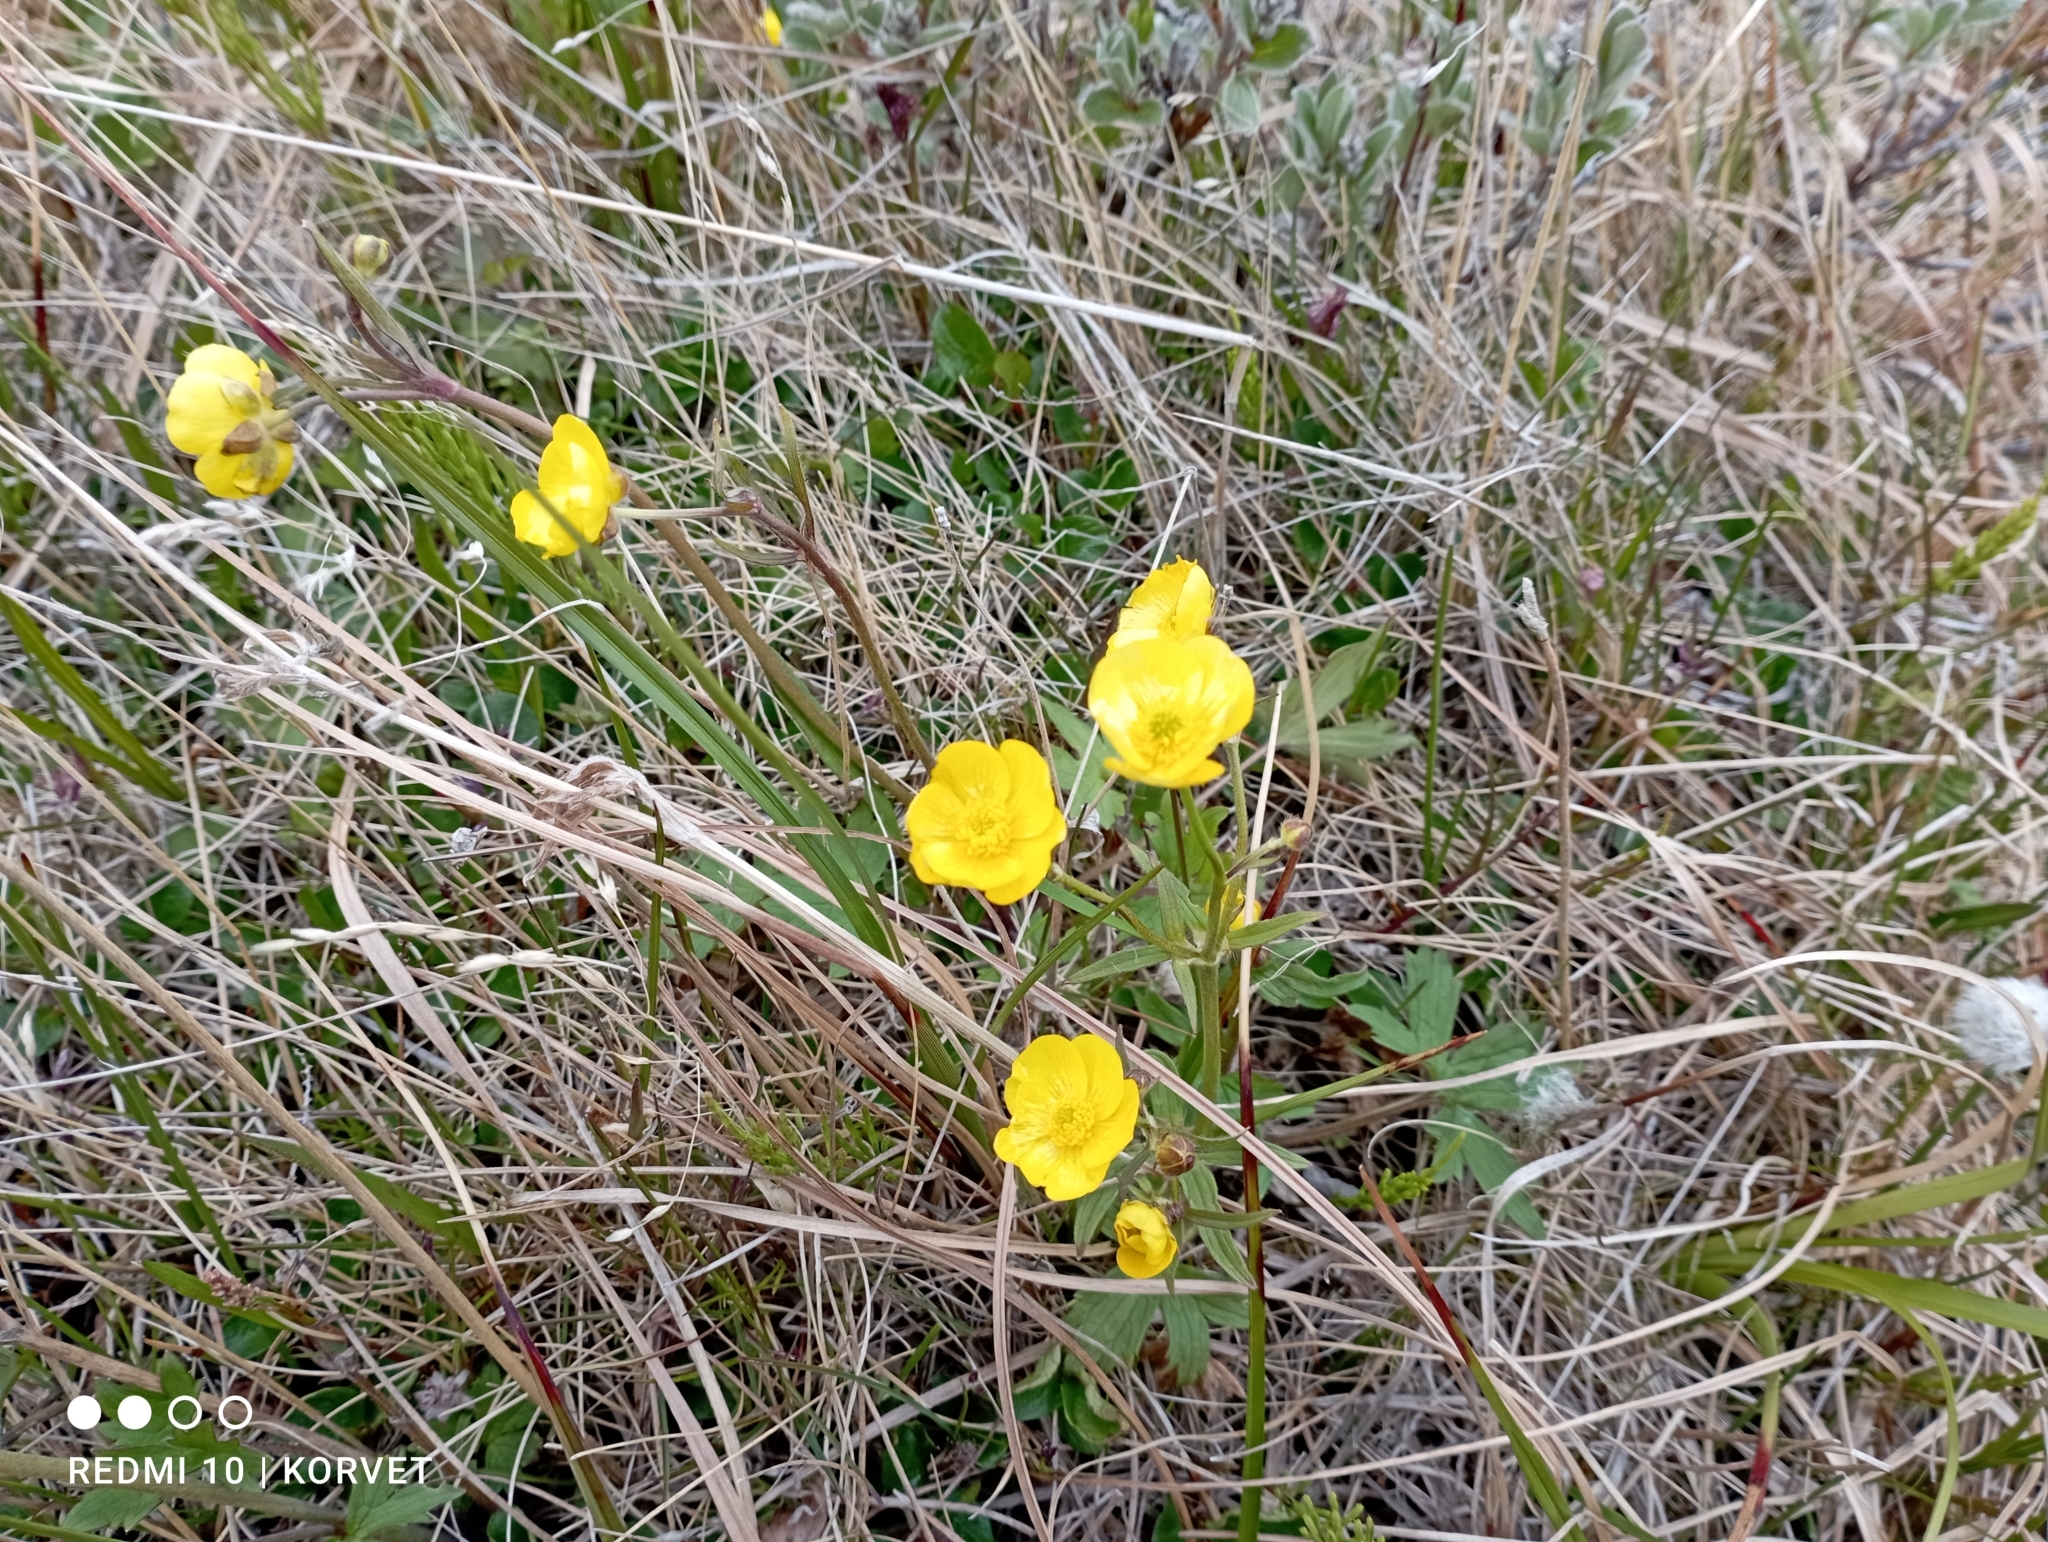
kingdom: Plantae
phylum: Tracheophyta
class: Magnoliopsida
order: Ranunculales
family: Ranunculaceae
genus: Ranunculus
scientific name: Ranunculus propinquus
